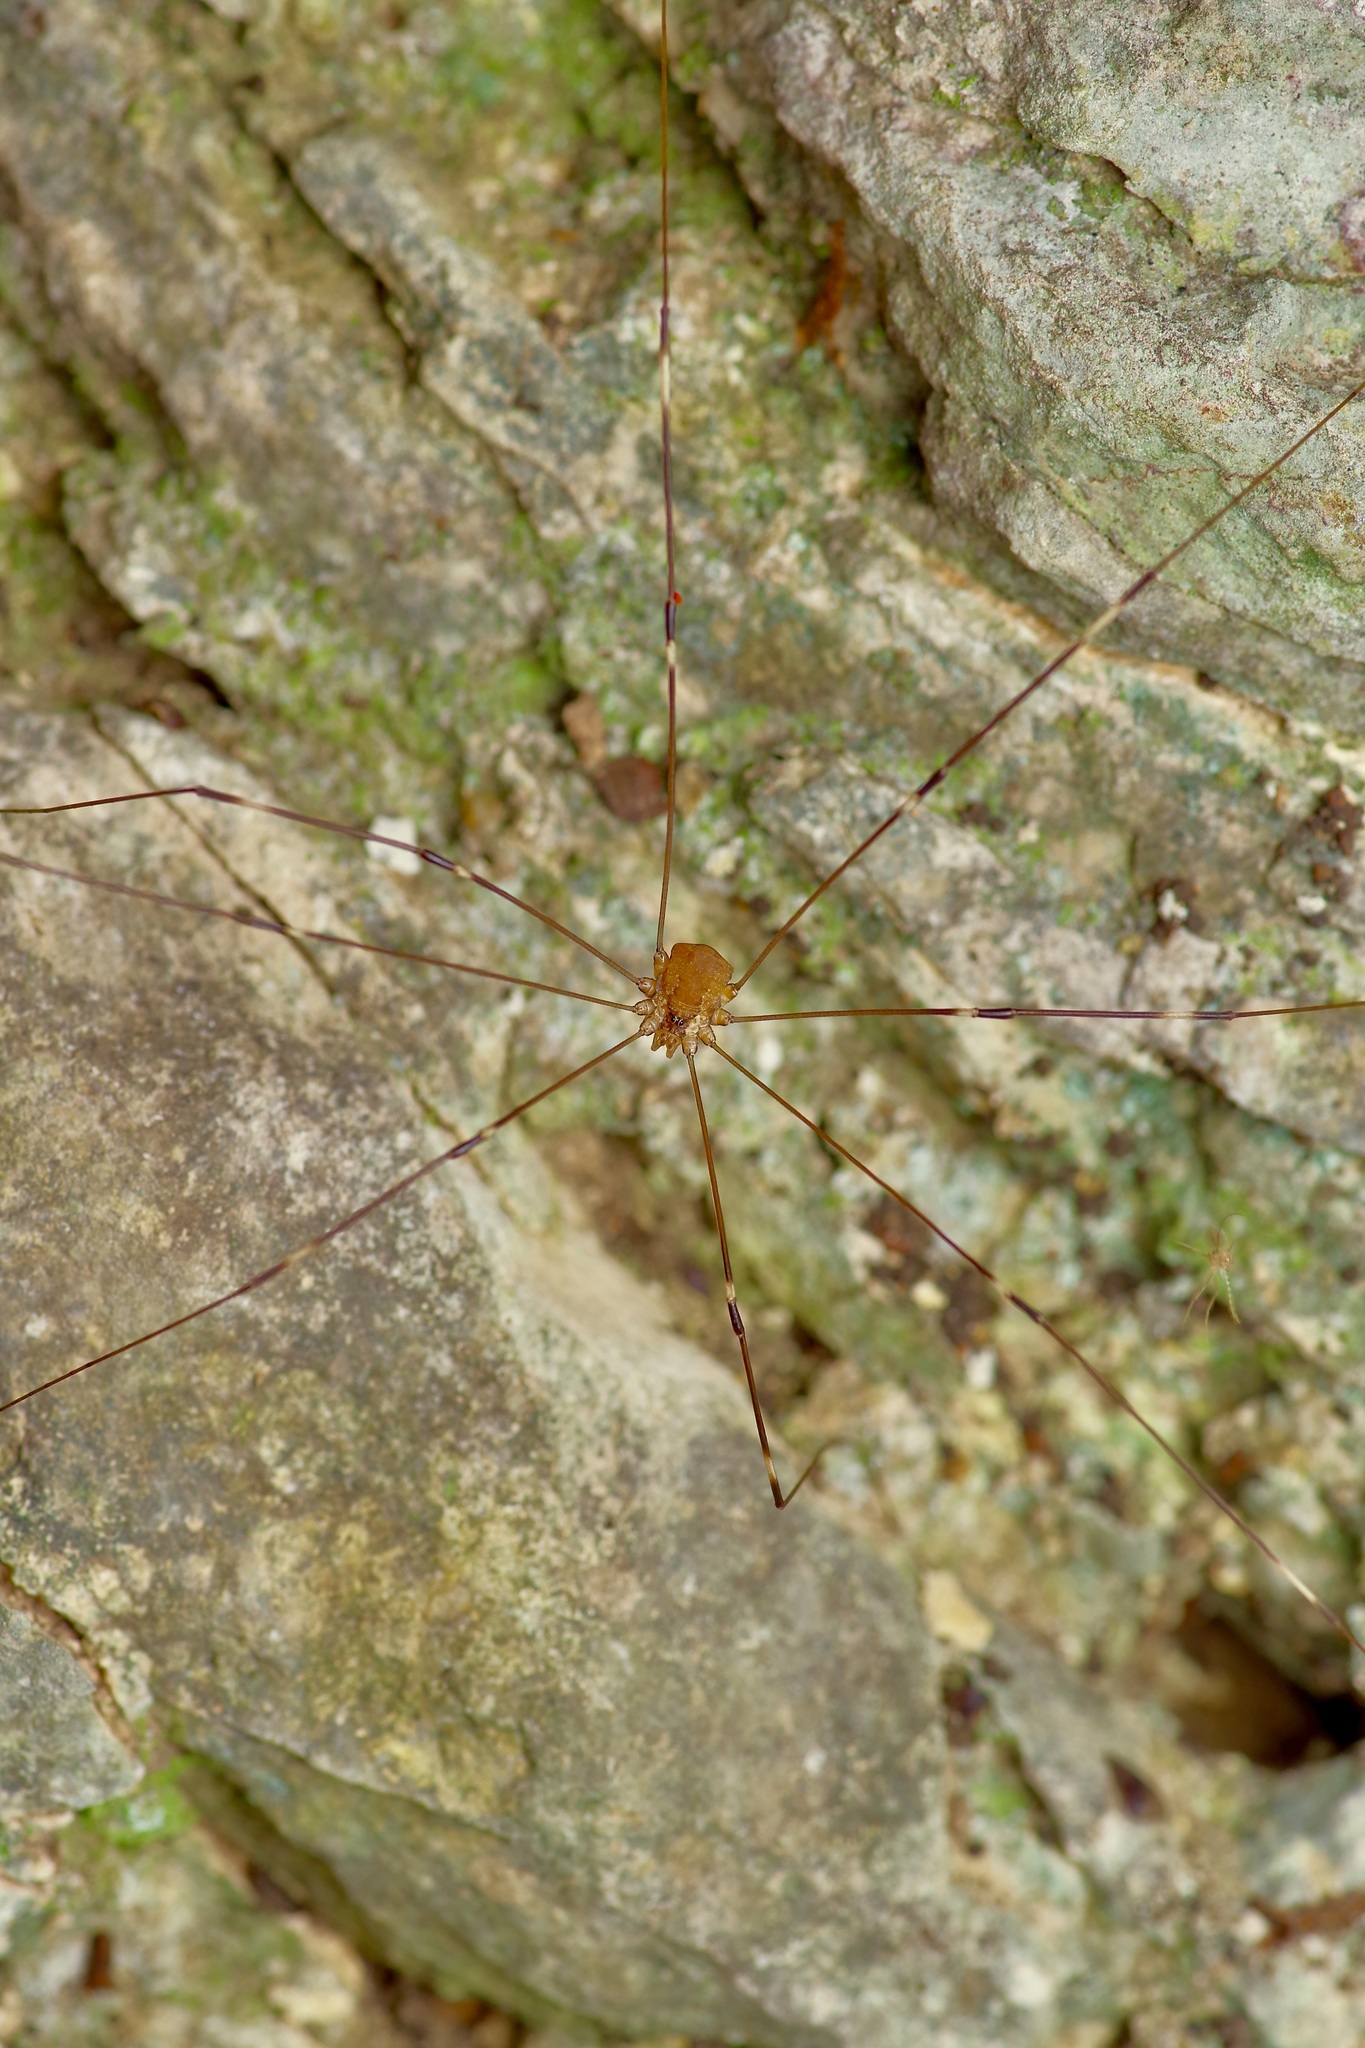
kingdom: Animalia
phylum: Arthropoda
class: Arachnida
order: Opiliones
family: Sclerosomatidae
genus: Leiobunum
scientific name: Leiobunum townsendi
